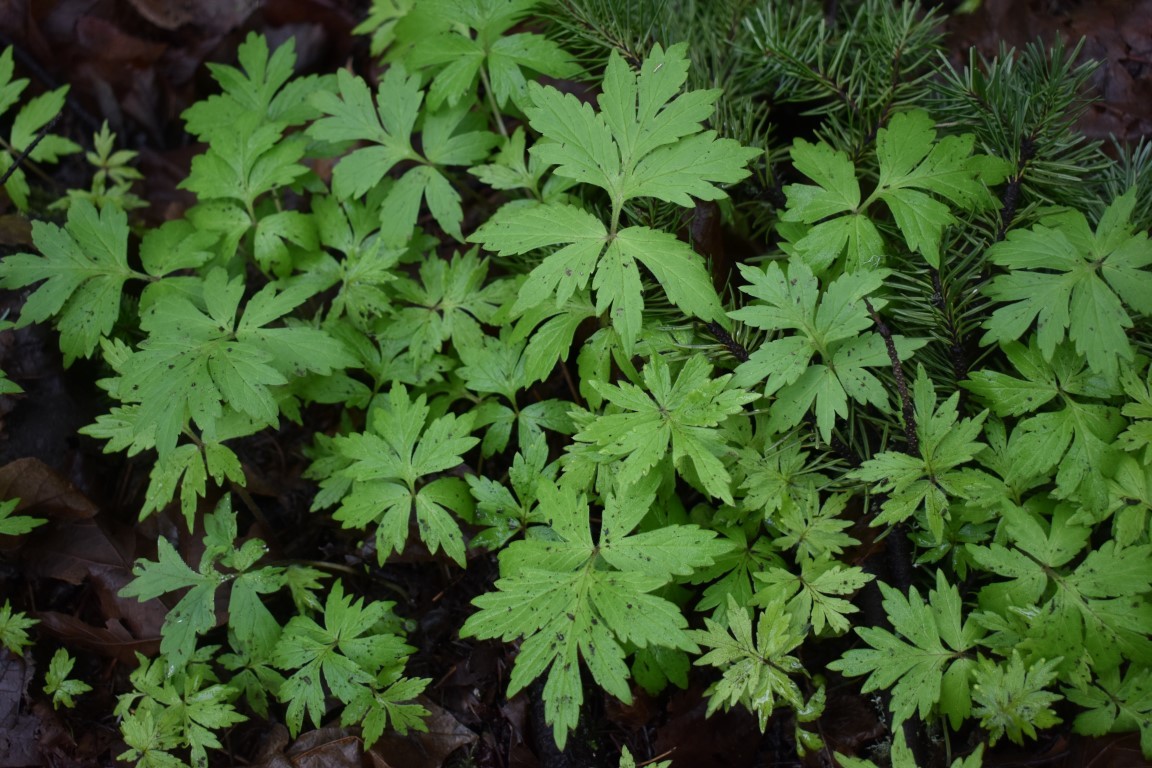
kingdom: Plantae
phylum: Tracheophyta
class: Magnoliopsida
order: Boraginales
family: Hydrophyllaceae
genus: Hydrophyllum
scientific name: Hydrophyllum tenuipes
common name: Pacific waterleaf
